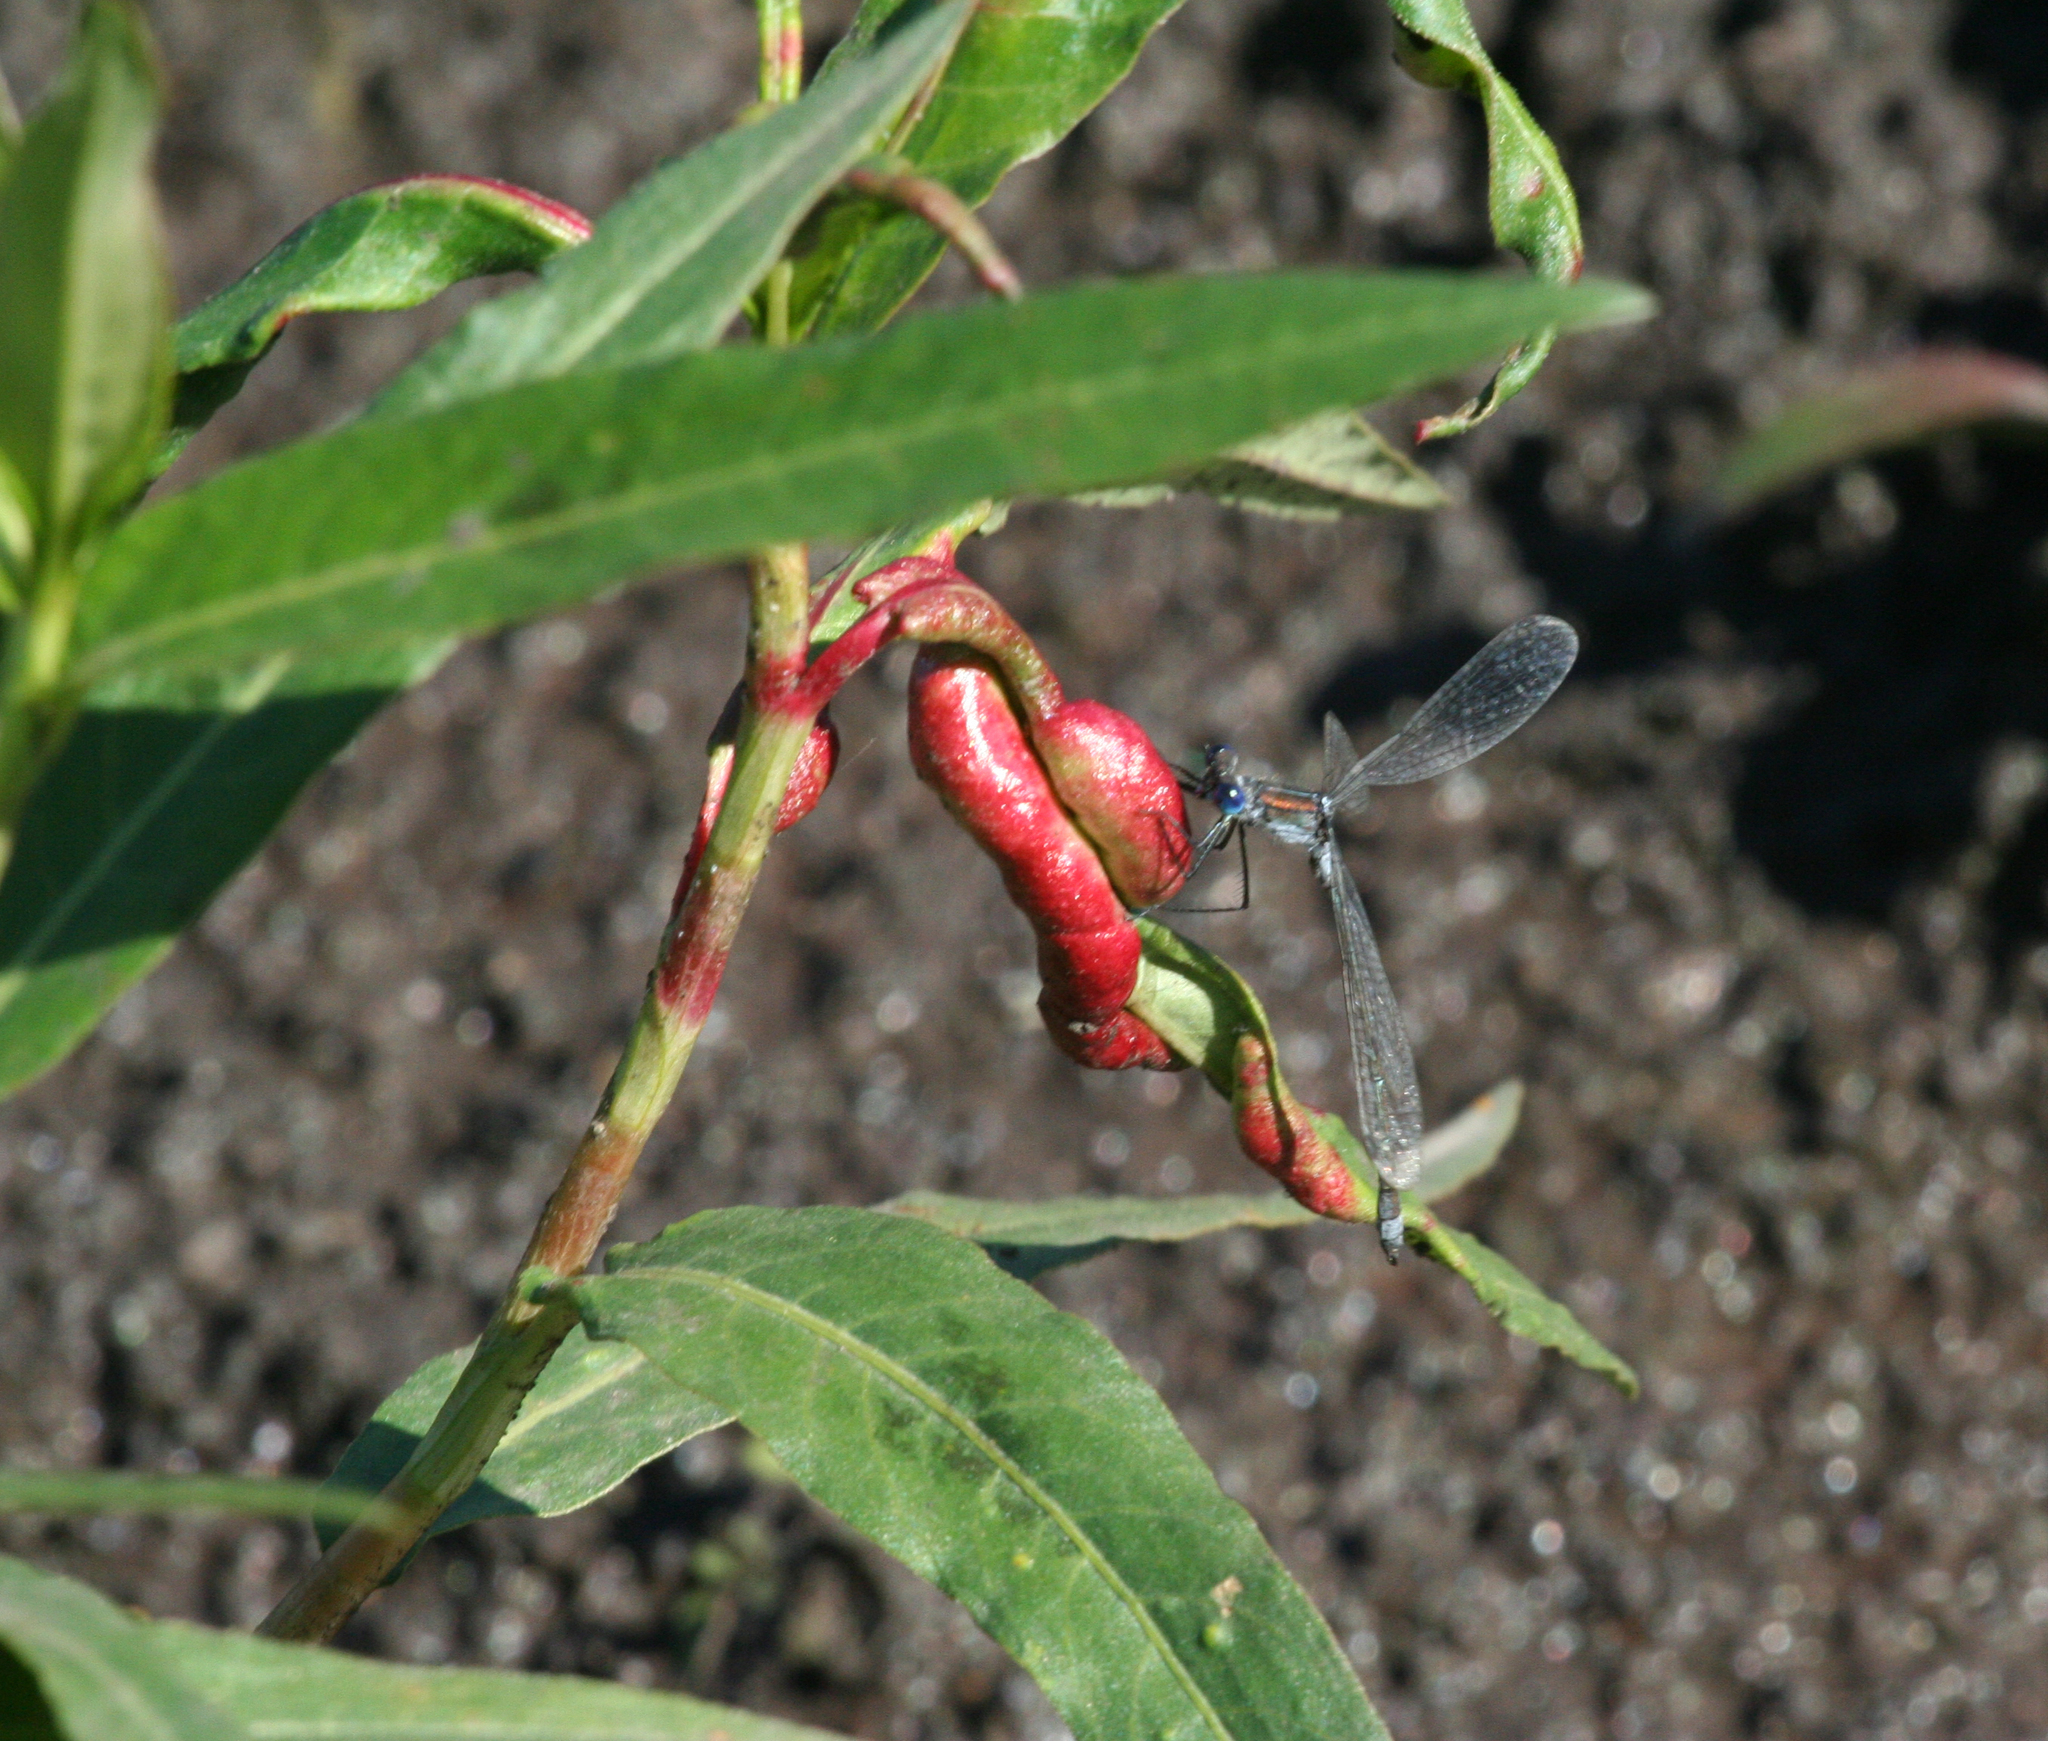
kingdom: Plantae
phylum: Tracheophyta
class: Magnoliopsida
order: Caryophyllales
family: Polygonaceae
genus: Persicaria
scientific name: Persicaria amphibia
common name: Amphibious bistort
